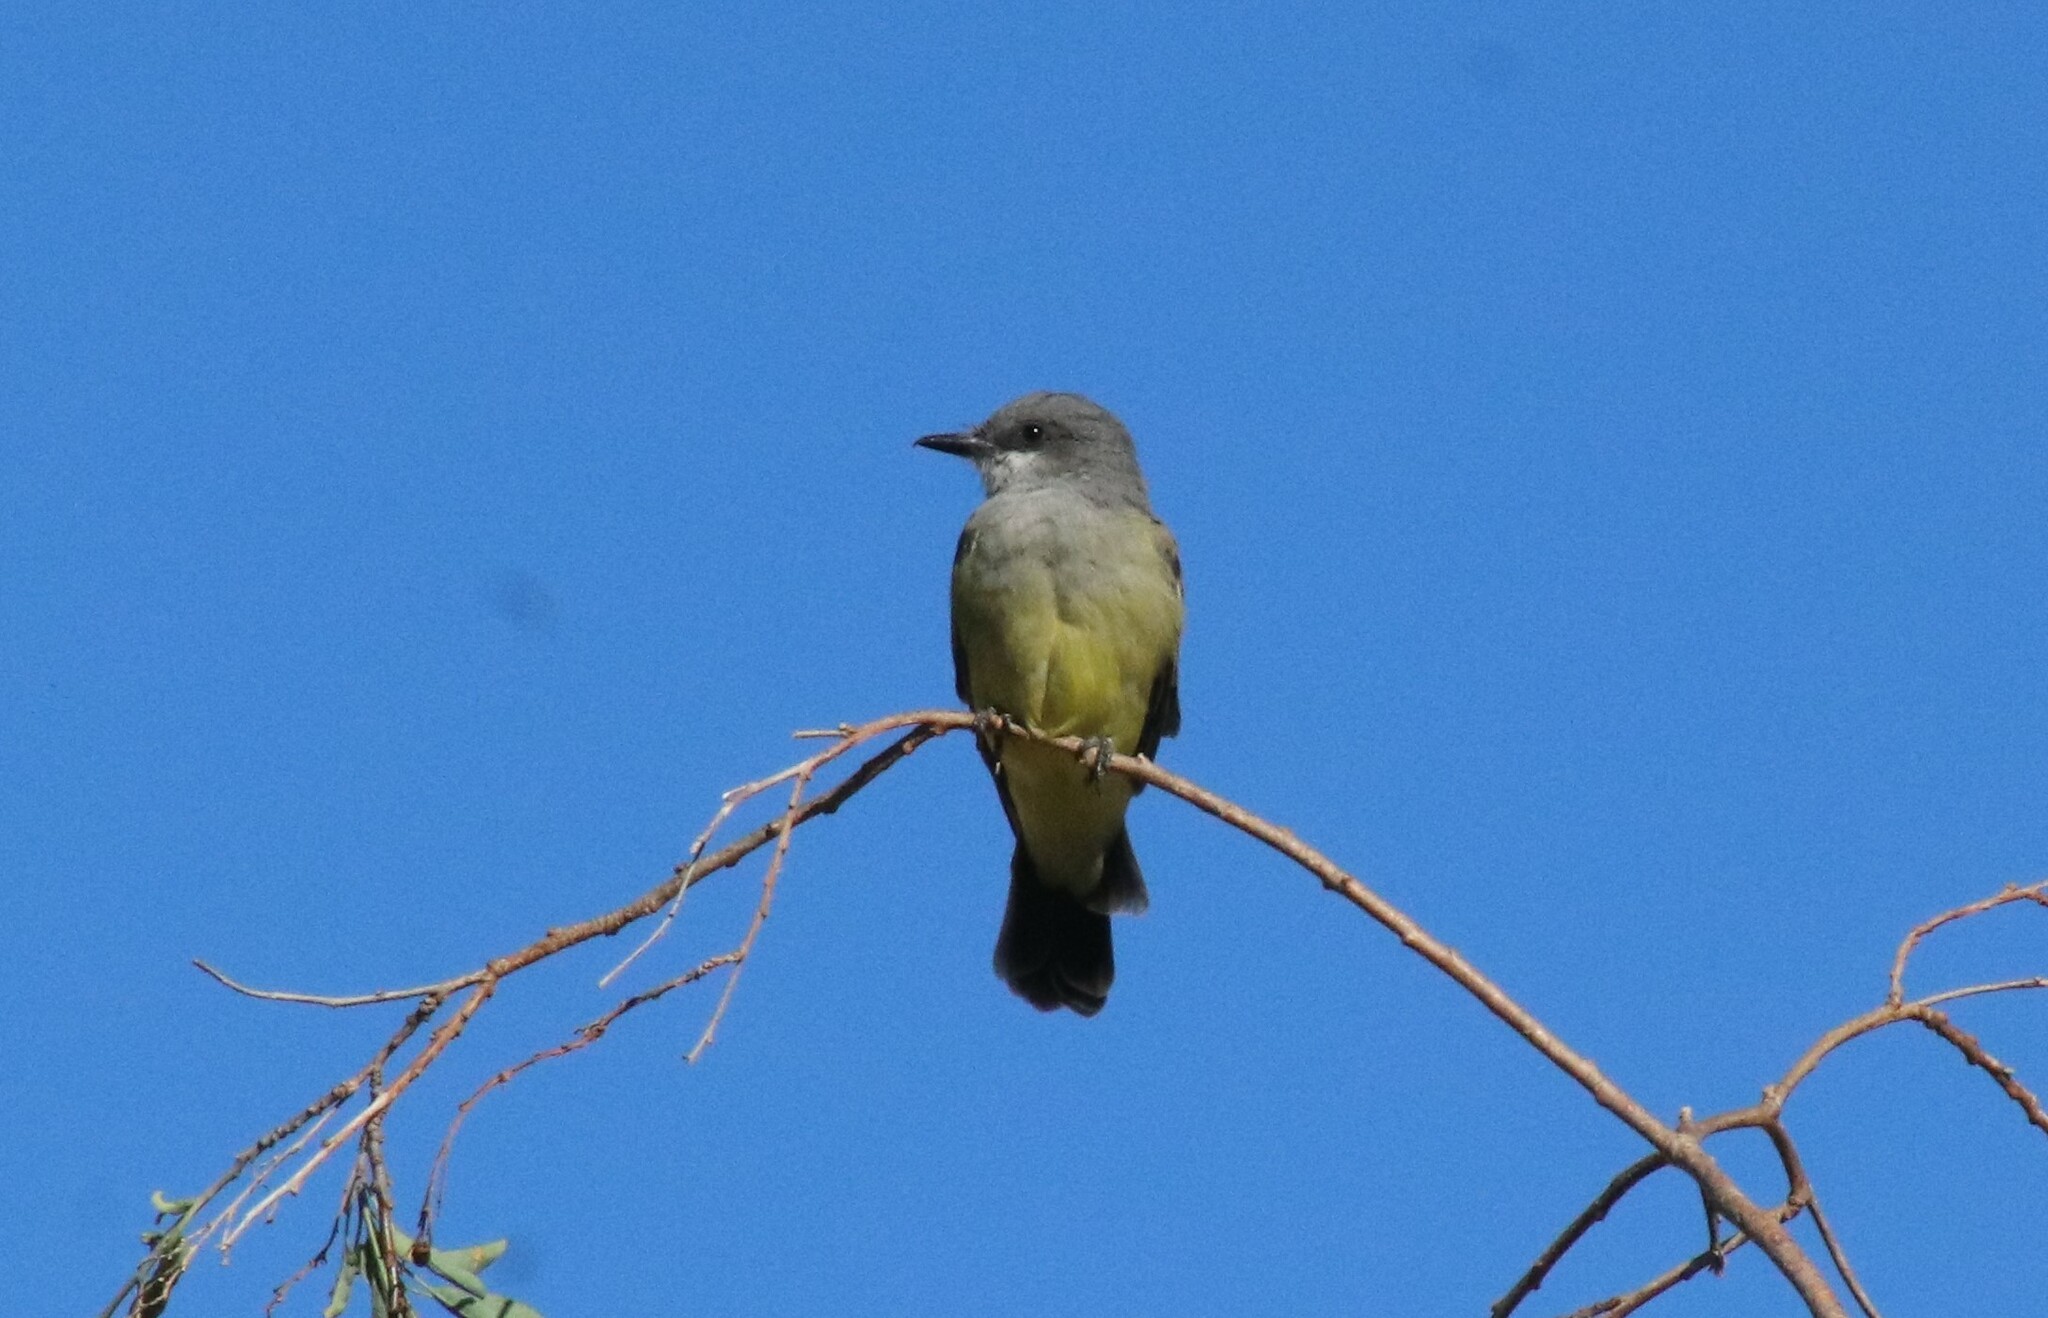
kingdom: Animalia
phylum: Chordata
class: Aves
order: Passeriformes
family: Tyrannidae
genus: Tyrannus
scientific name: Tyrannus vociferans
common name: Cassin's kingbird
